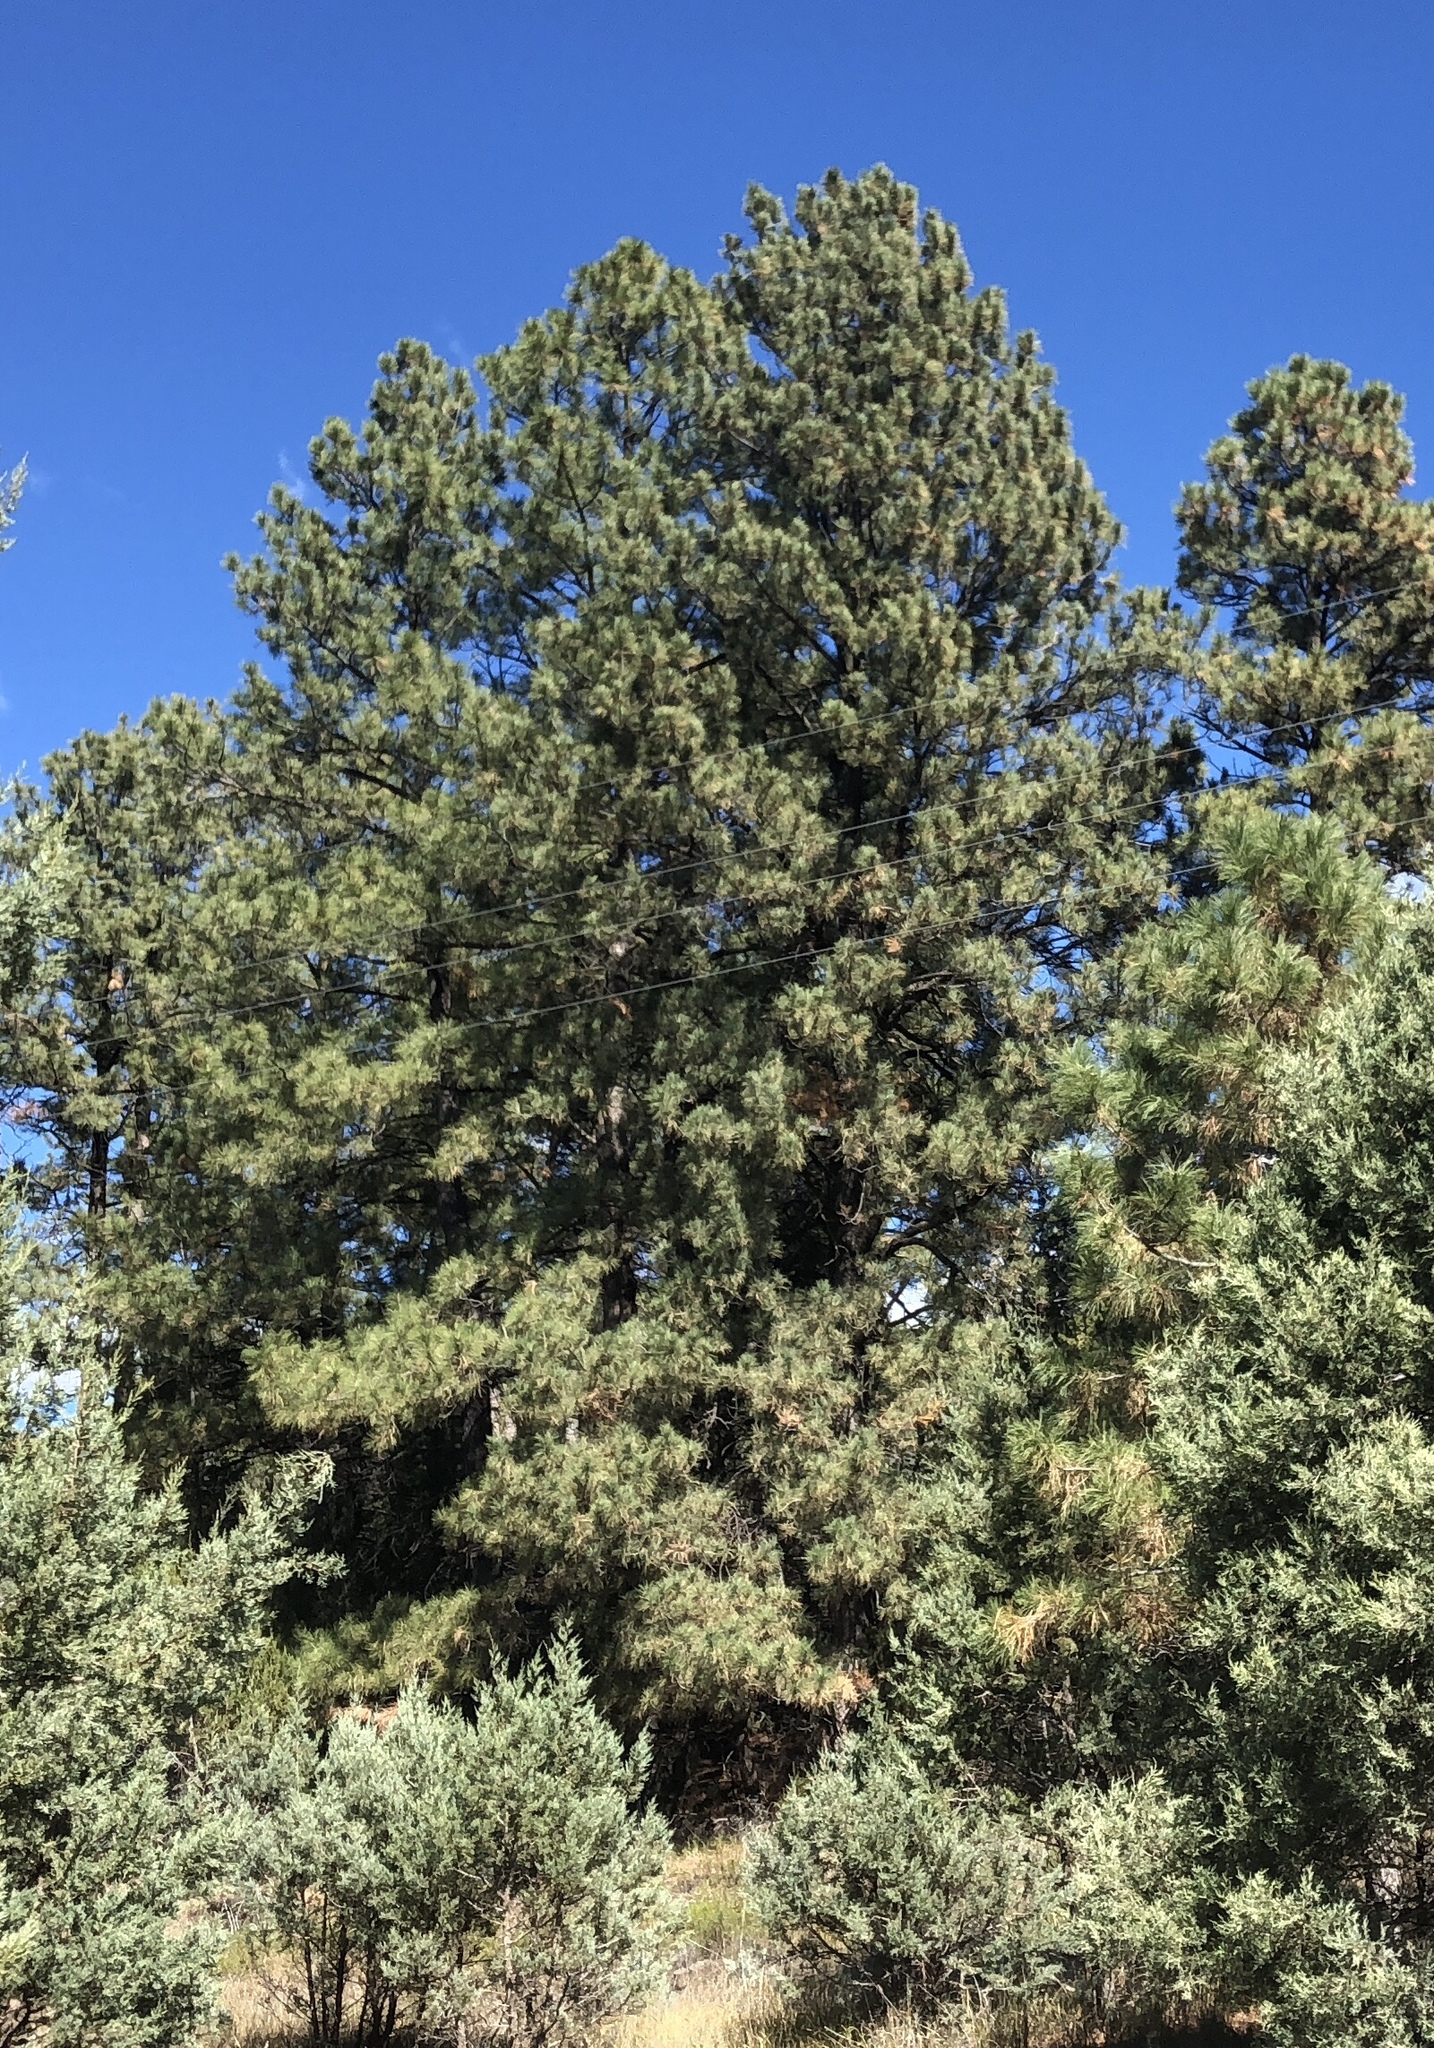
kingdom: Plantae
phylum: Tracheophyta
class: Pinopsida
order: Pinales
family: Pinaceae
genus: Pinus
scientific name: Pinus ponderosa
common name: Western yellow-pine
